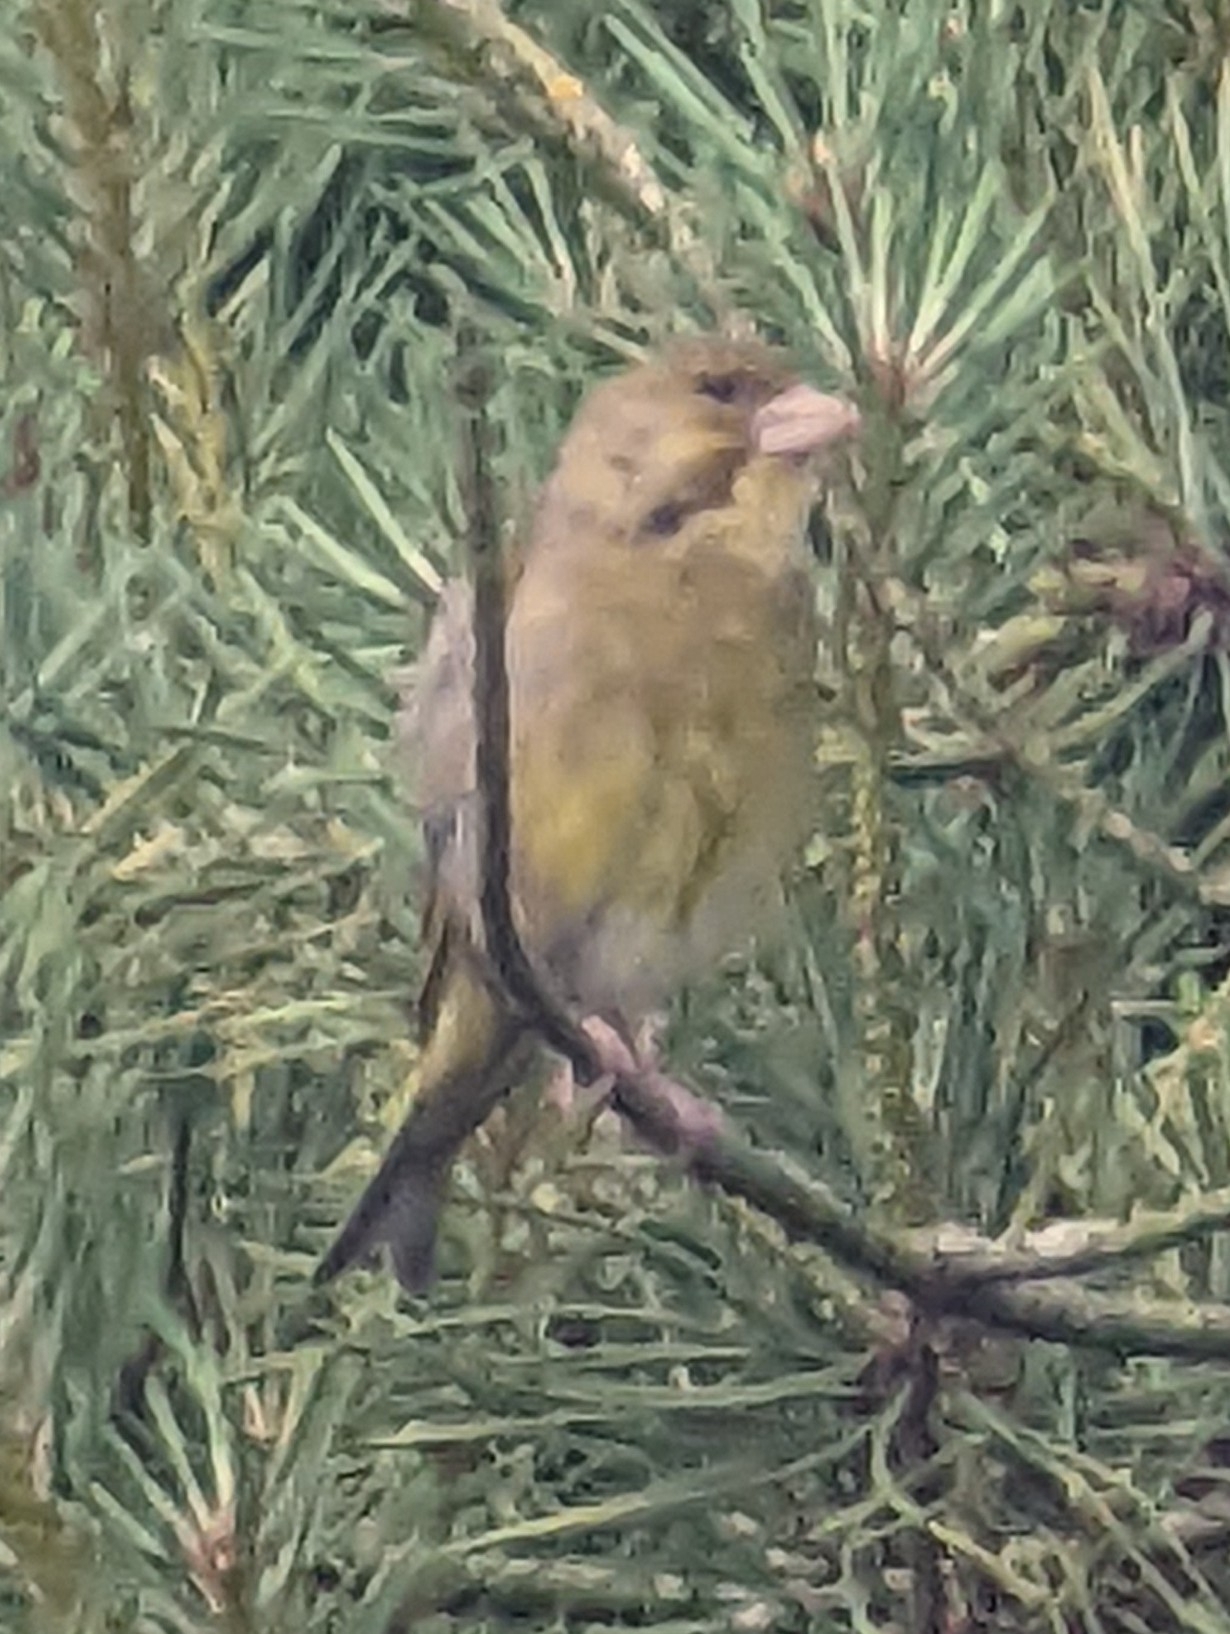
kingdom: Plantae
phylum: Tracheophyta
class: Liliopsida
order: Poales
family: Poaceae
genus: Chloris
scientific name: Chloris chloris
